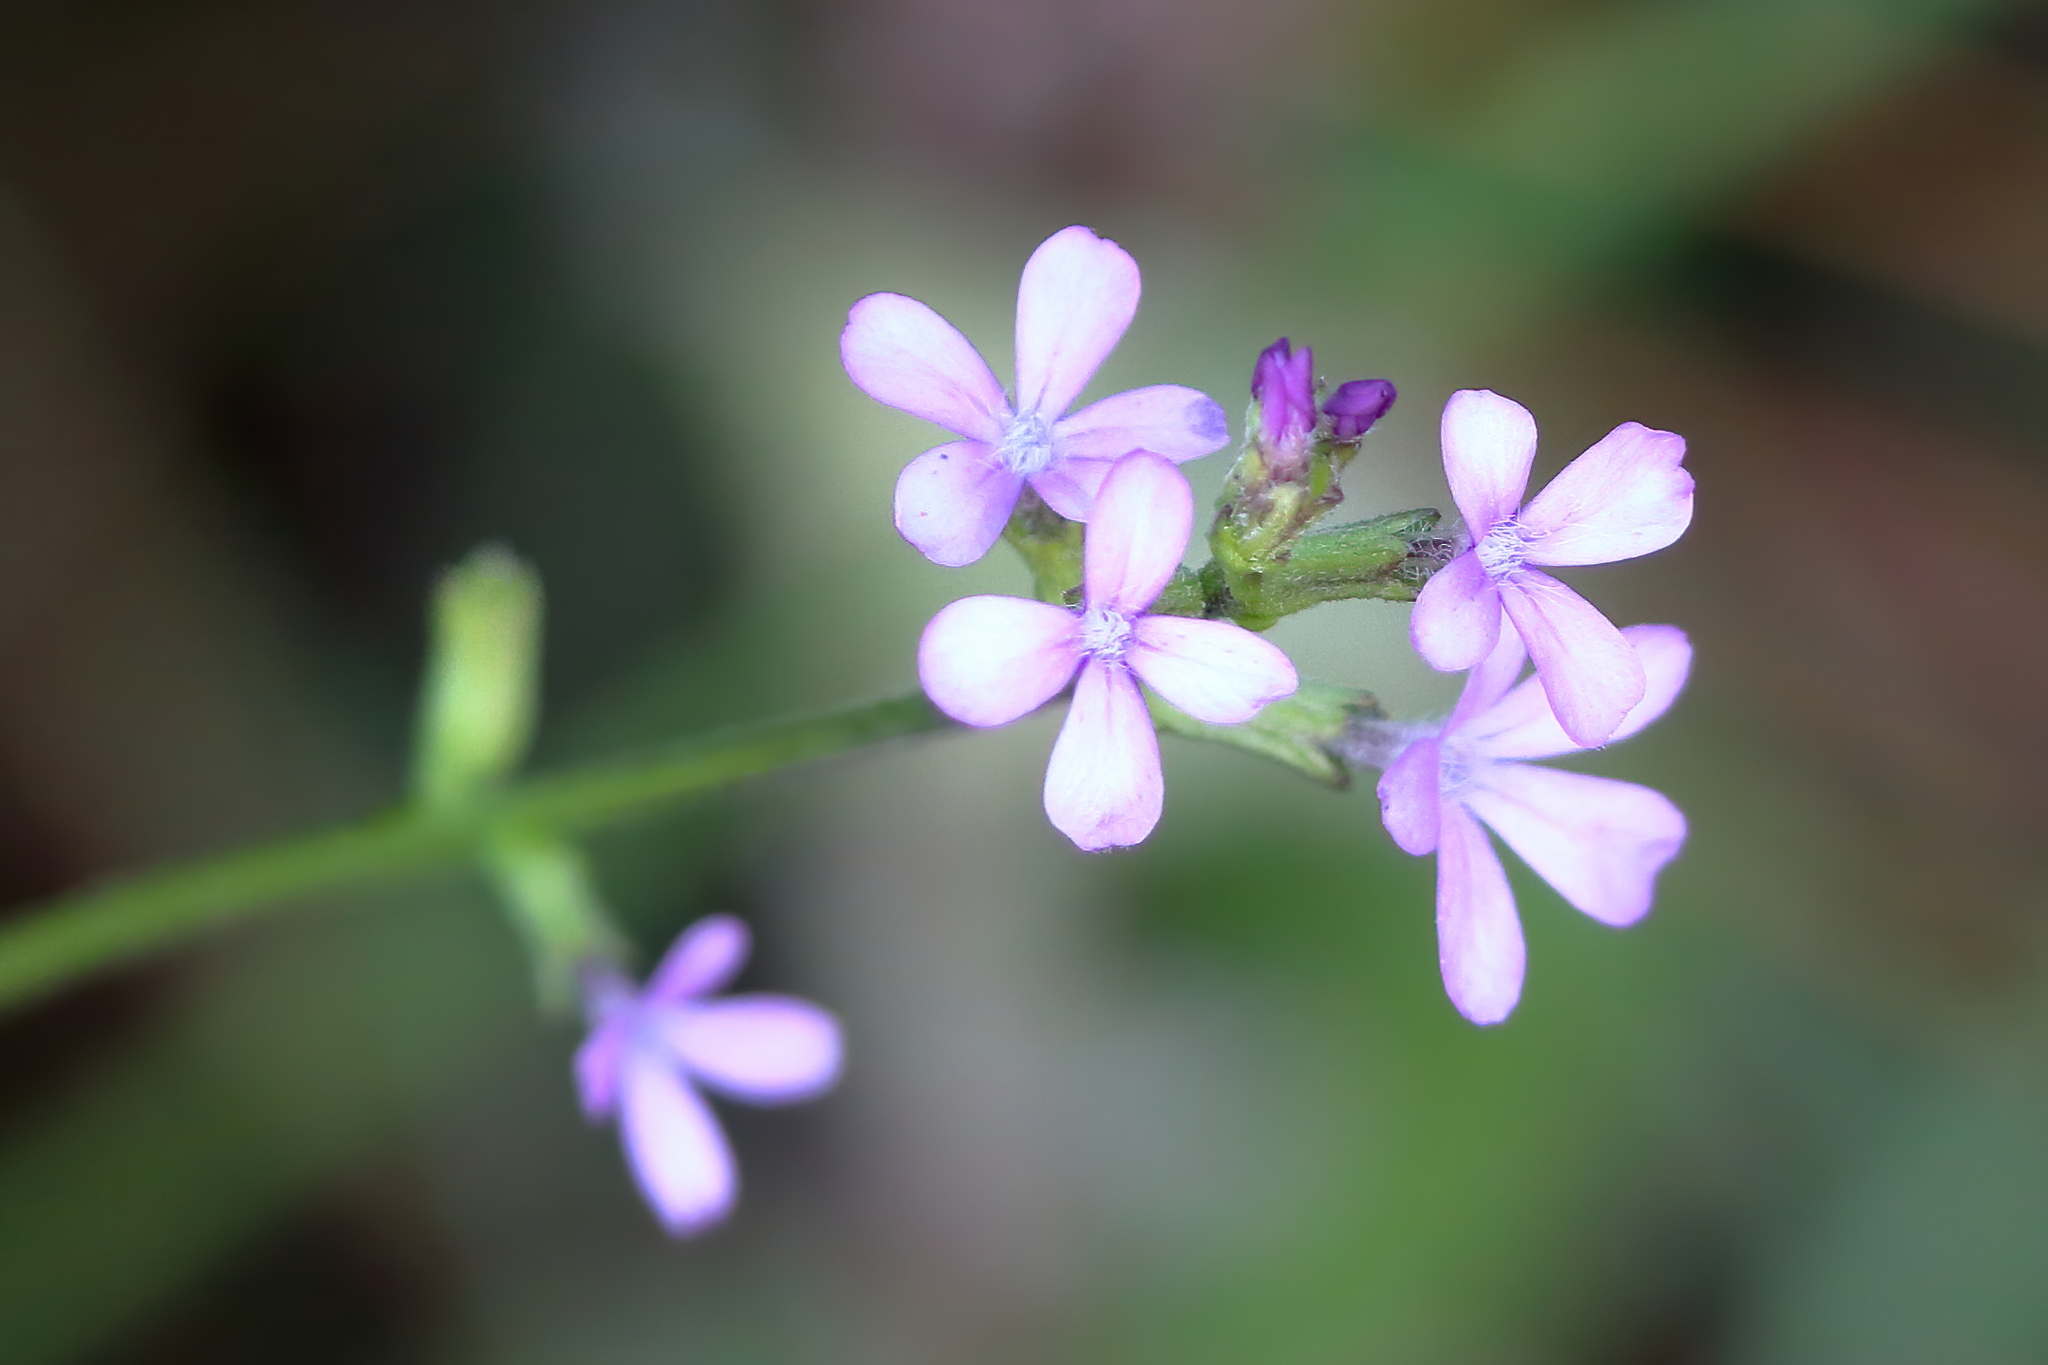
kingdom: Plantae
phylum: Tracheophyta
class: Magnoliopsida
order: Lamiales
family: Orobanchaceae
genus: Buchnera
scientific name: Buchnera floridana
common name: Florida bluehearts
